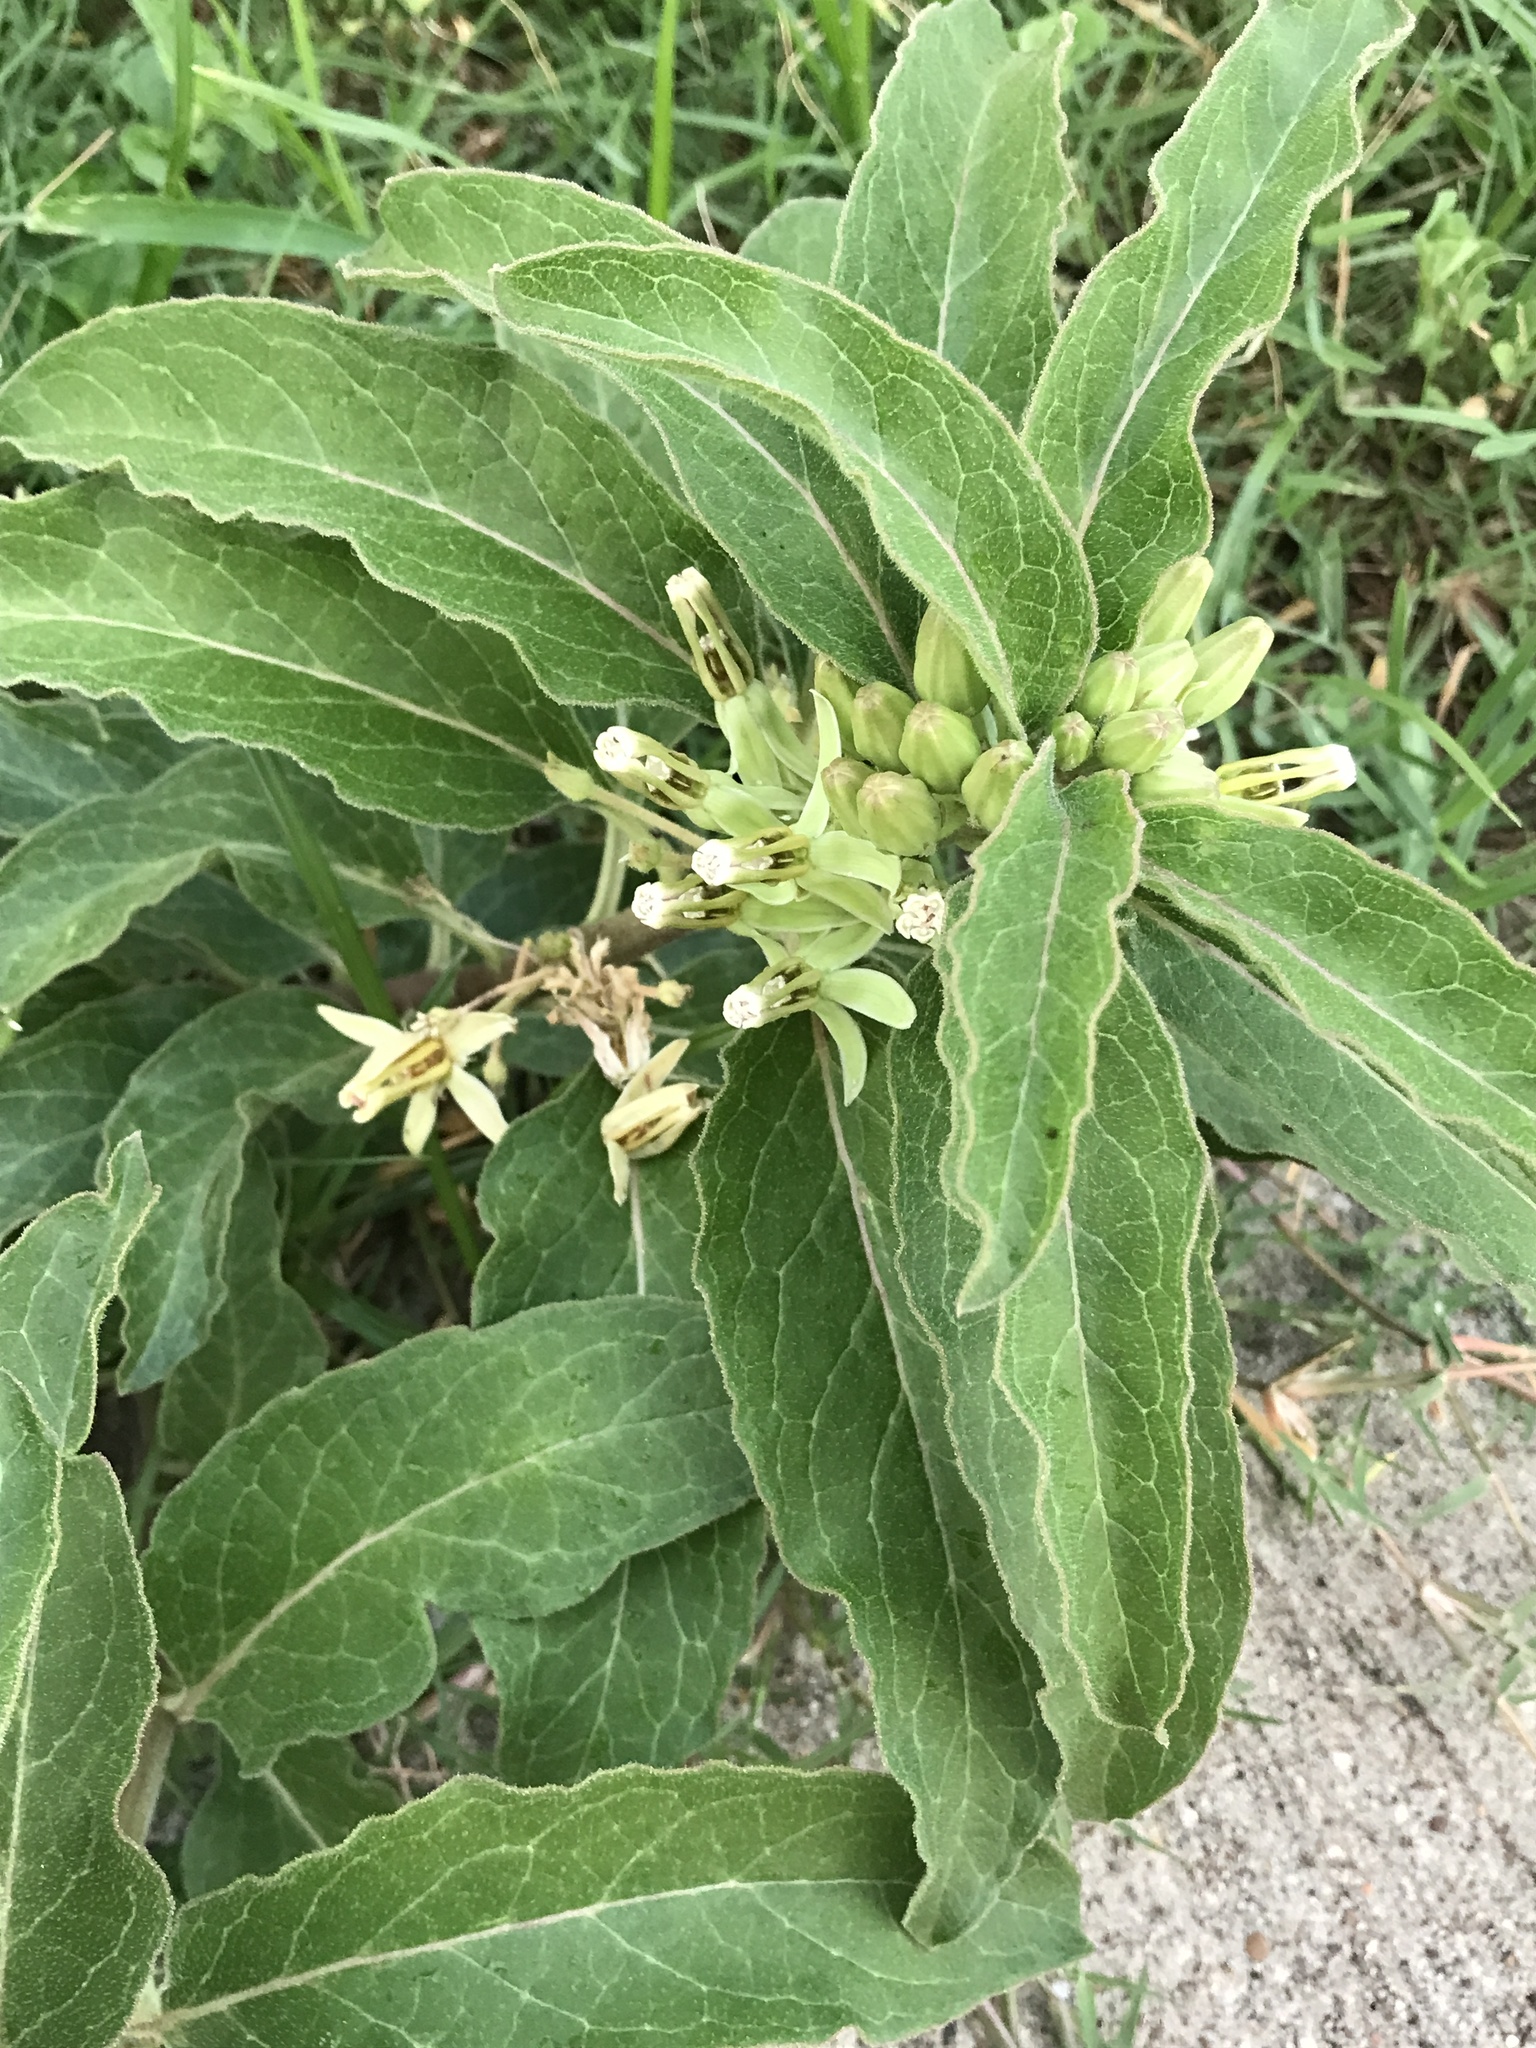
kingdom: Plantae
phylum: Tracheophyta
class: Magnoliopsida
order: Gentianales
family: Apocynaceae
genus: Asclepias
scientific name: Asclepias oenotheroides
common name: Zizotes milkweed
